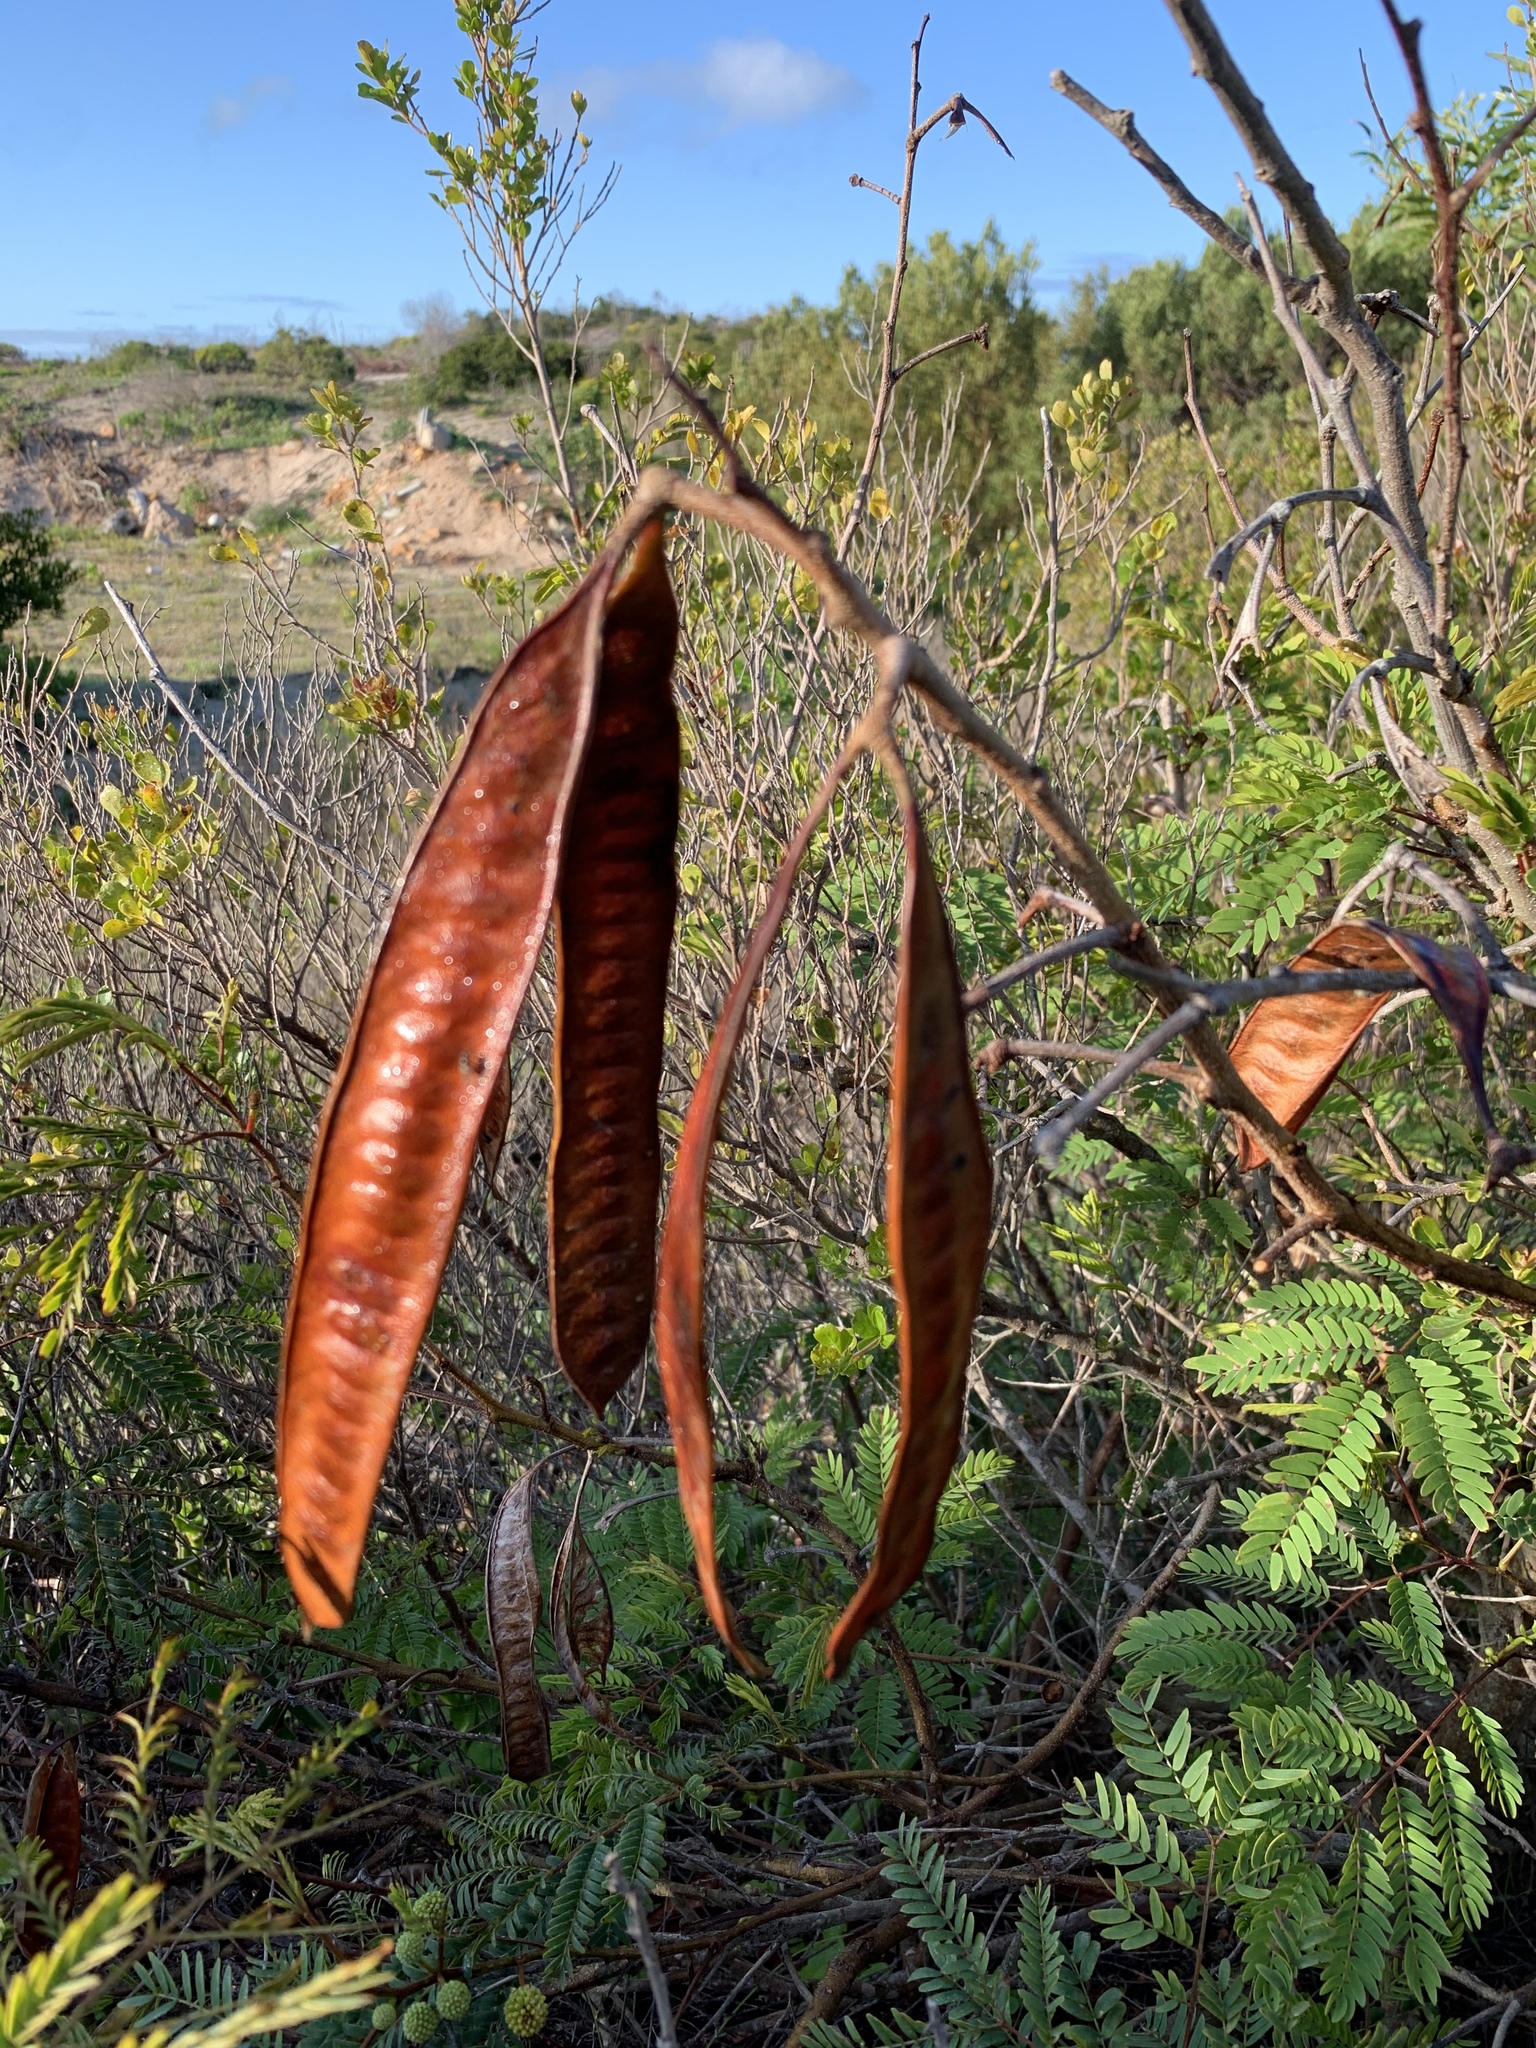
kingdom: Plantae
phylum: Tracheophyta
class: Magnoliopsida
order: Fabales
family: Fabaceae
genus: Leucaena
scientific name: Leucaena leucocephala
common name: White leadtree
